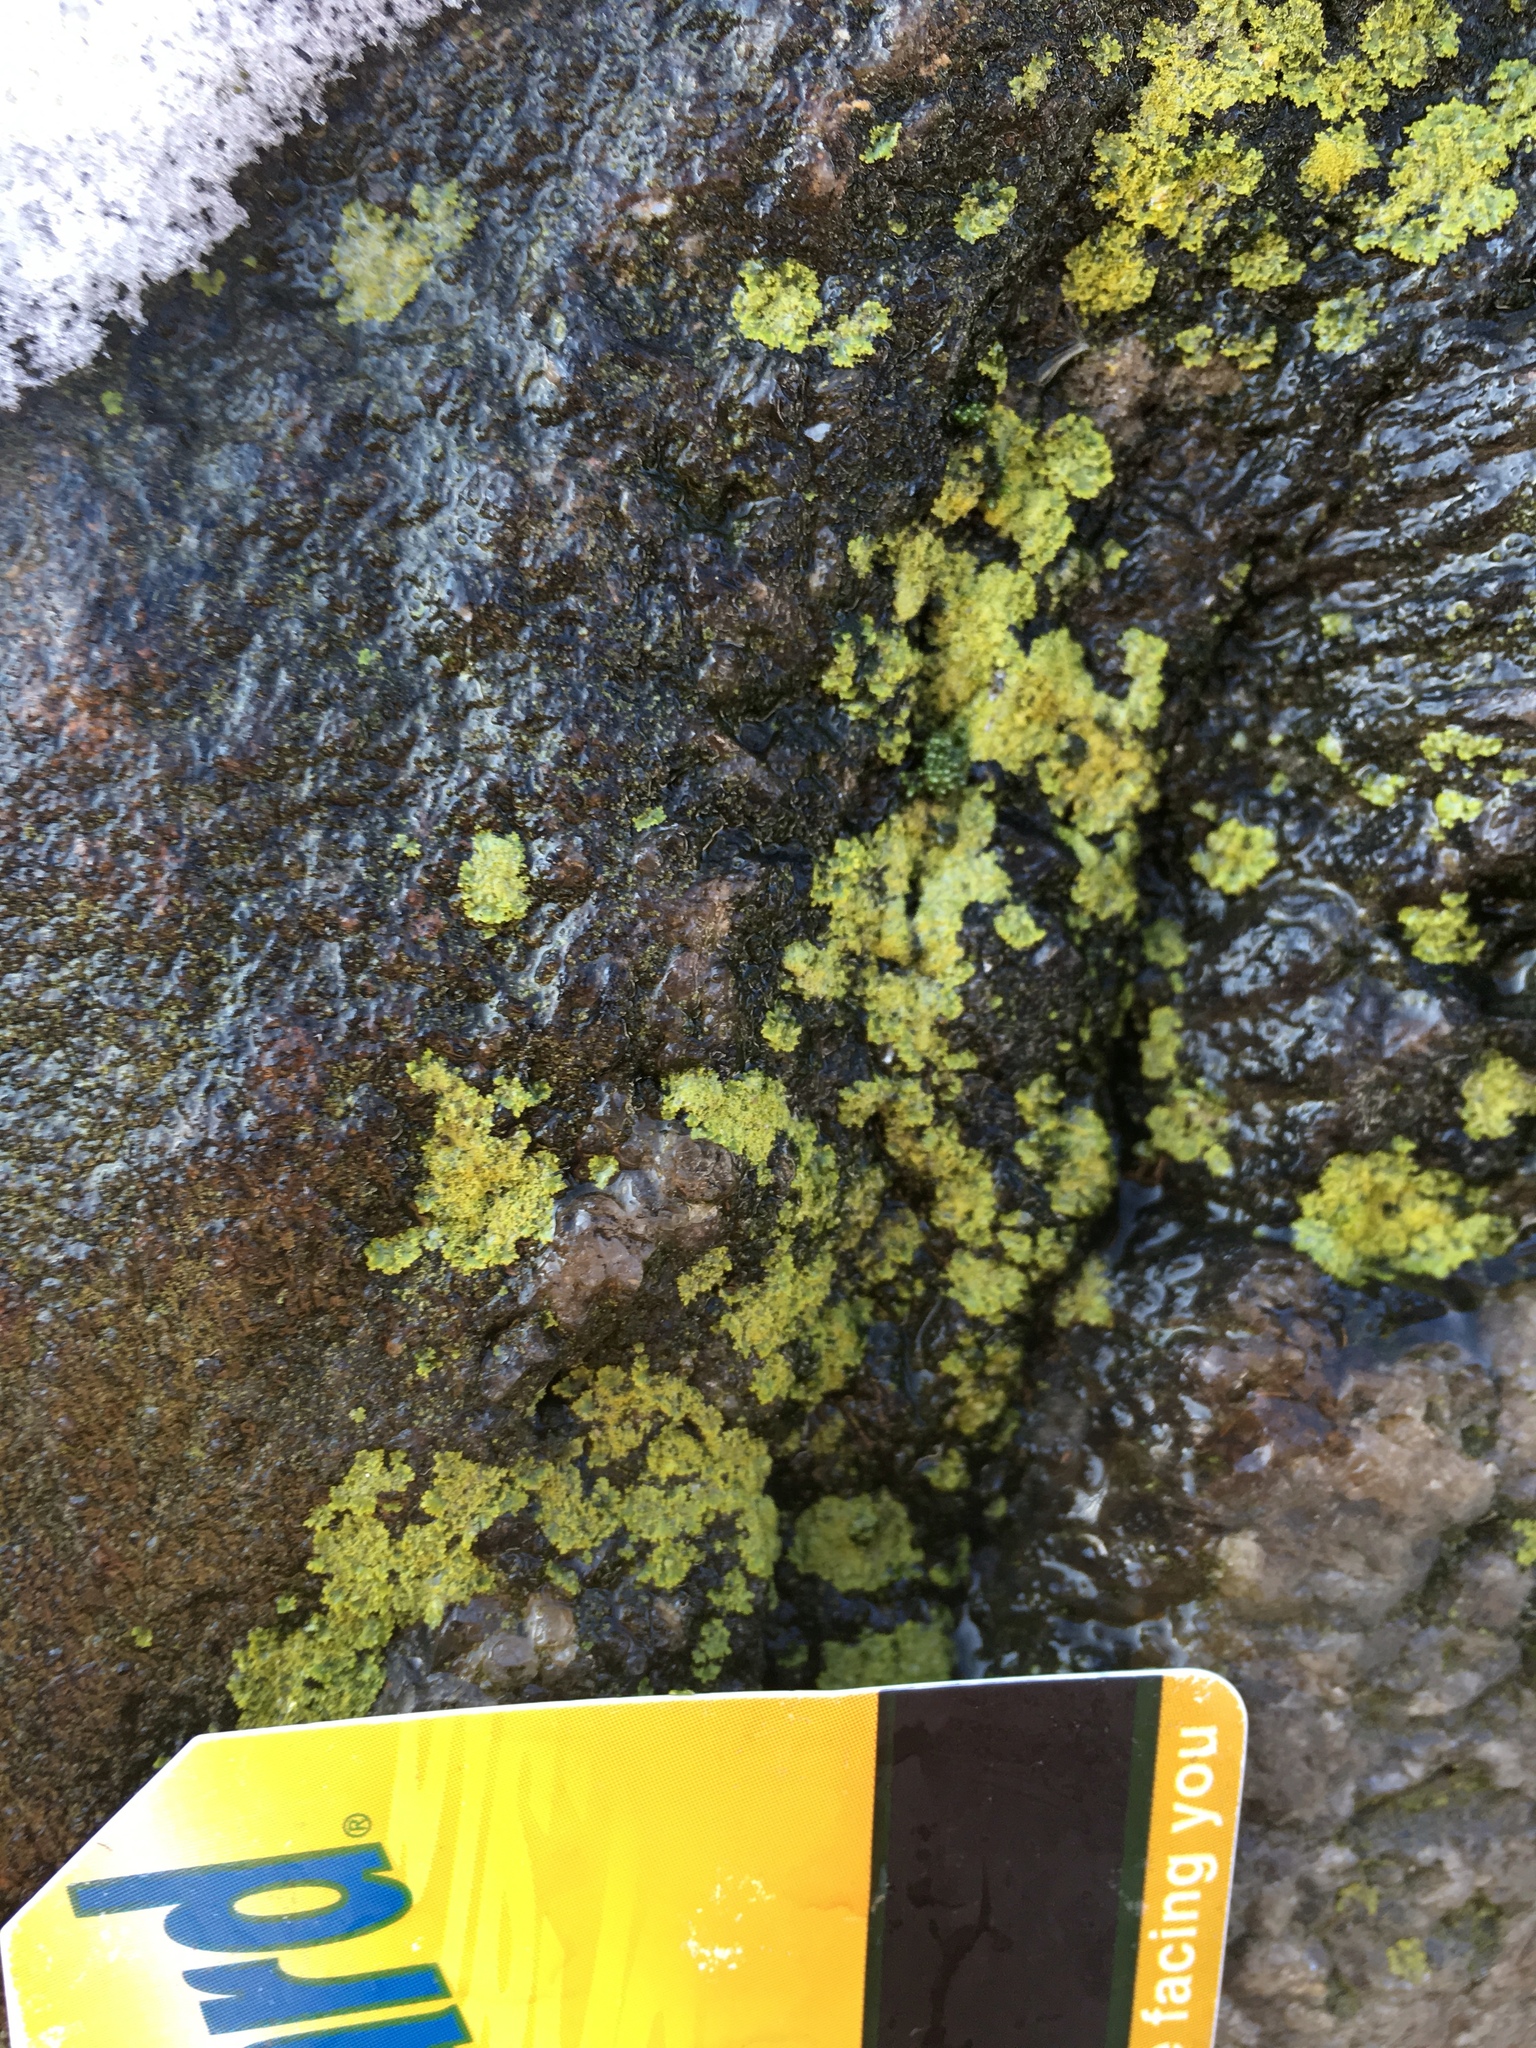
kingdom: Fungi
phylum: Ascomycota
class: Candelariomycetes
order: Candelariales
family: Candelariaceae
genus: Candelaria
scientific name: Candelaria concolor
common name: Candleflame lichen
